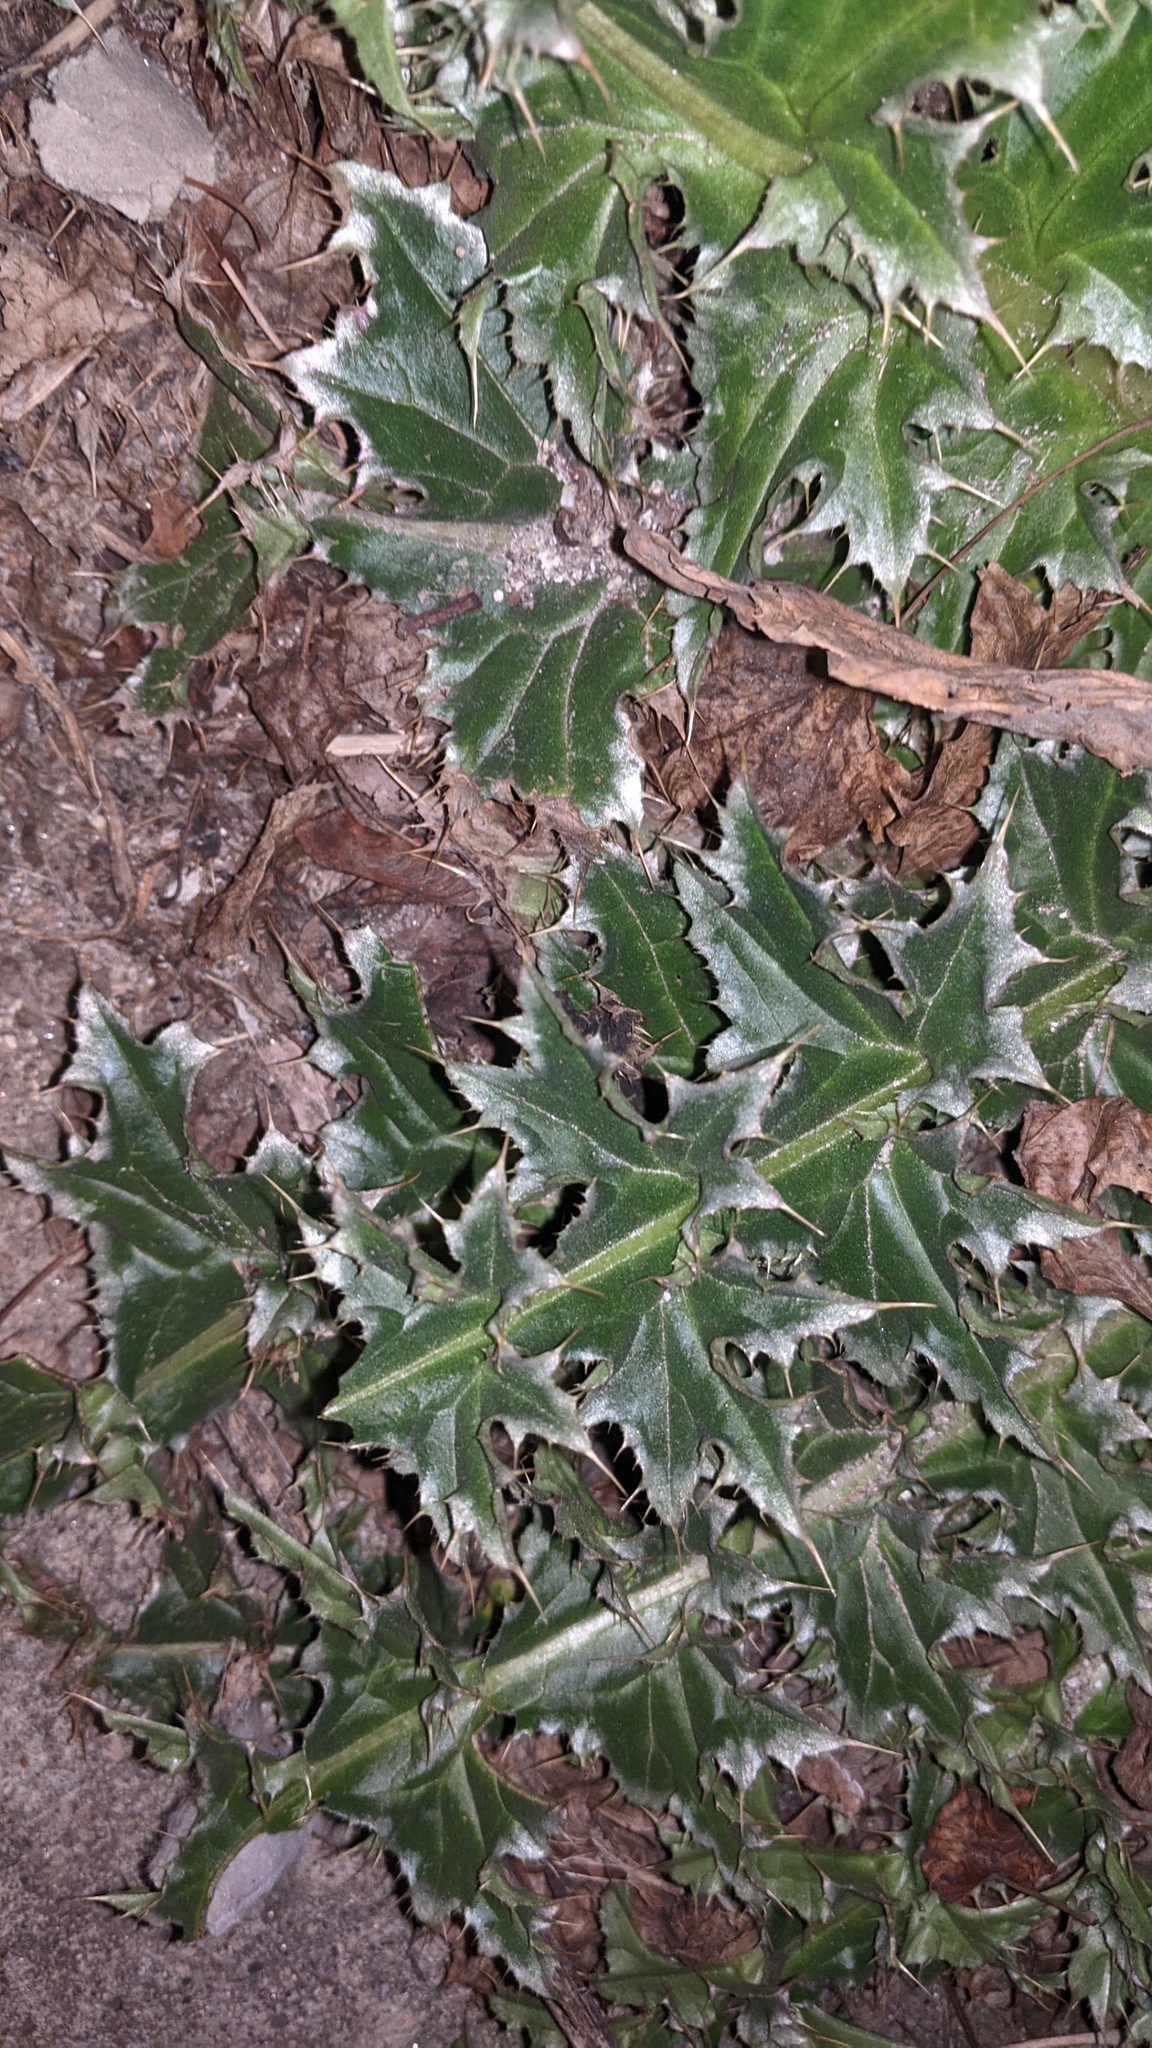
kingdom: Plantae
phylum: Tracheophyta
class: Magnoliopsida
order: Asterales
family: Asteraceae
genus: Carduus
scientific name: Carduus nutans
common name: Musk thistle
